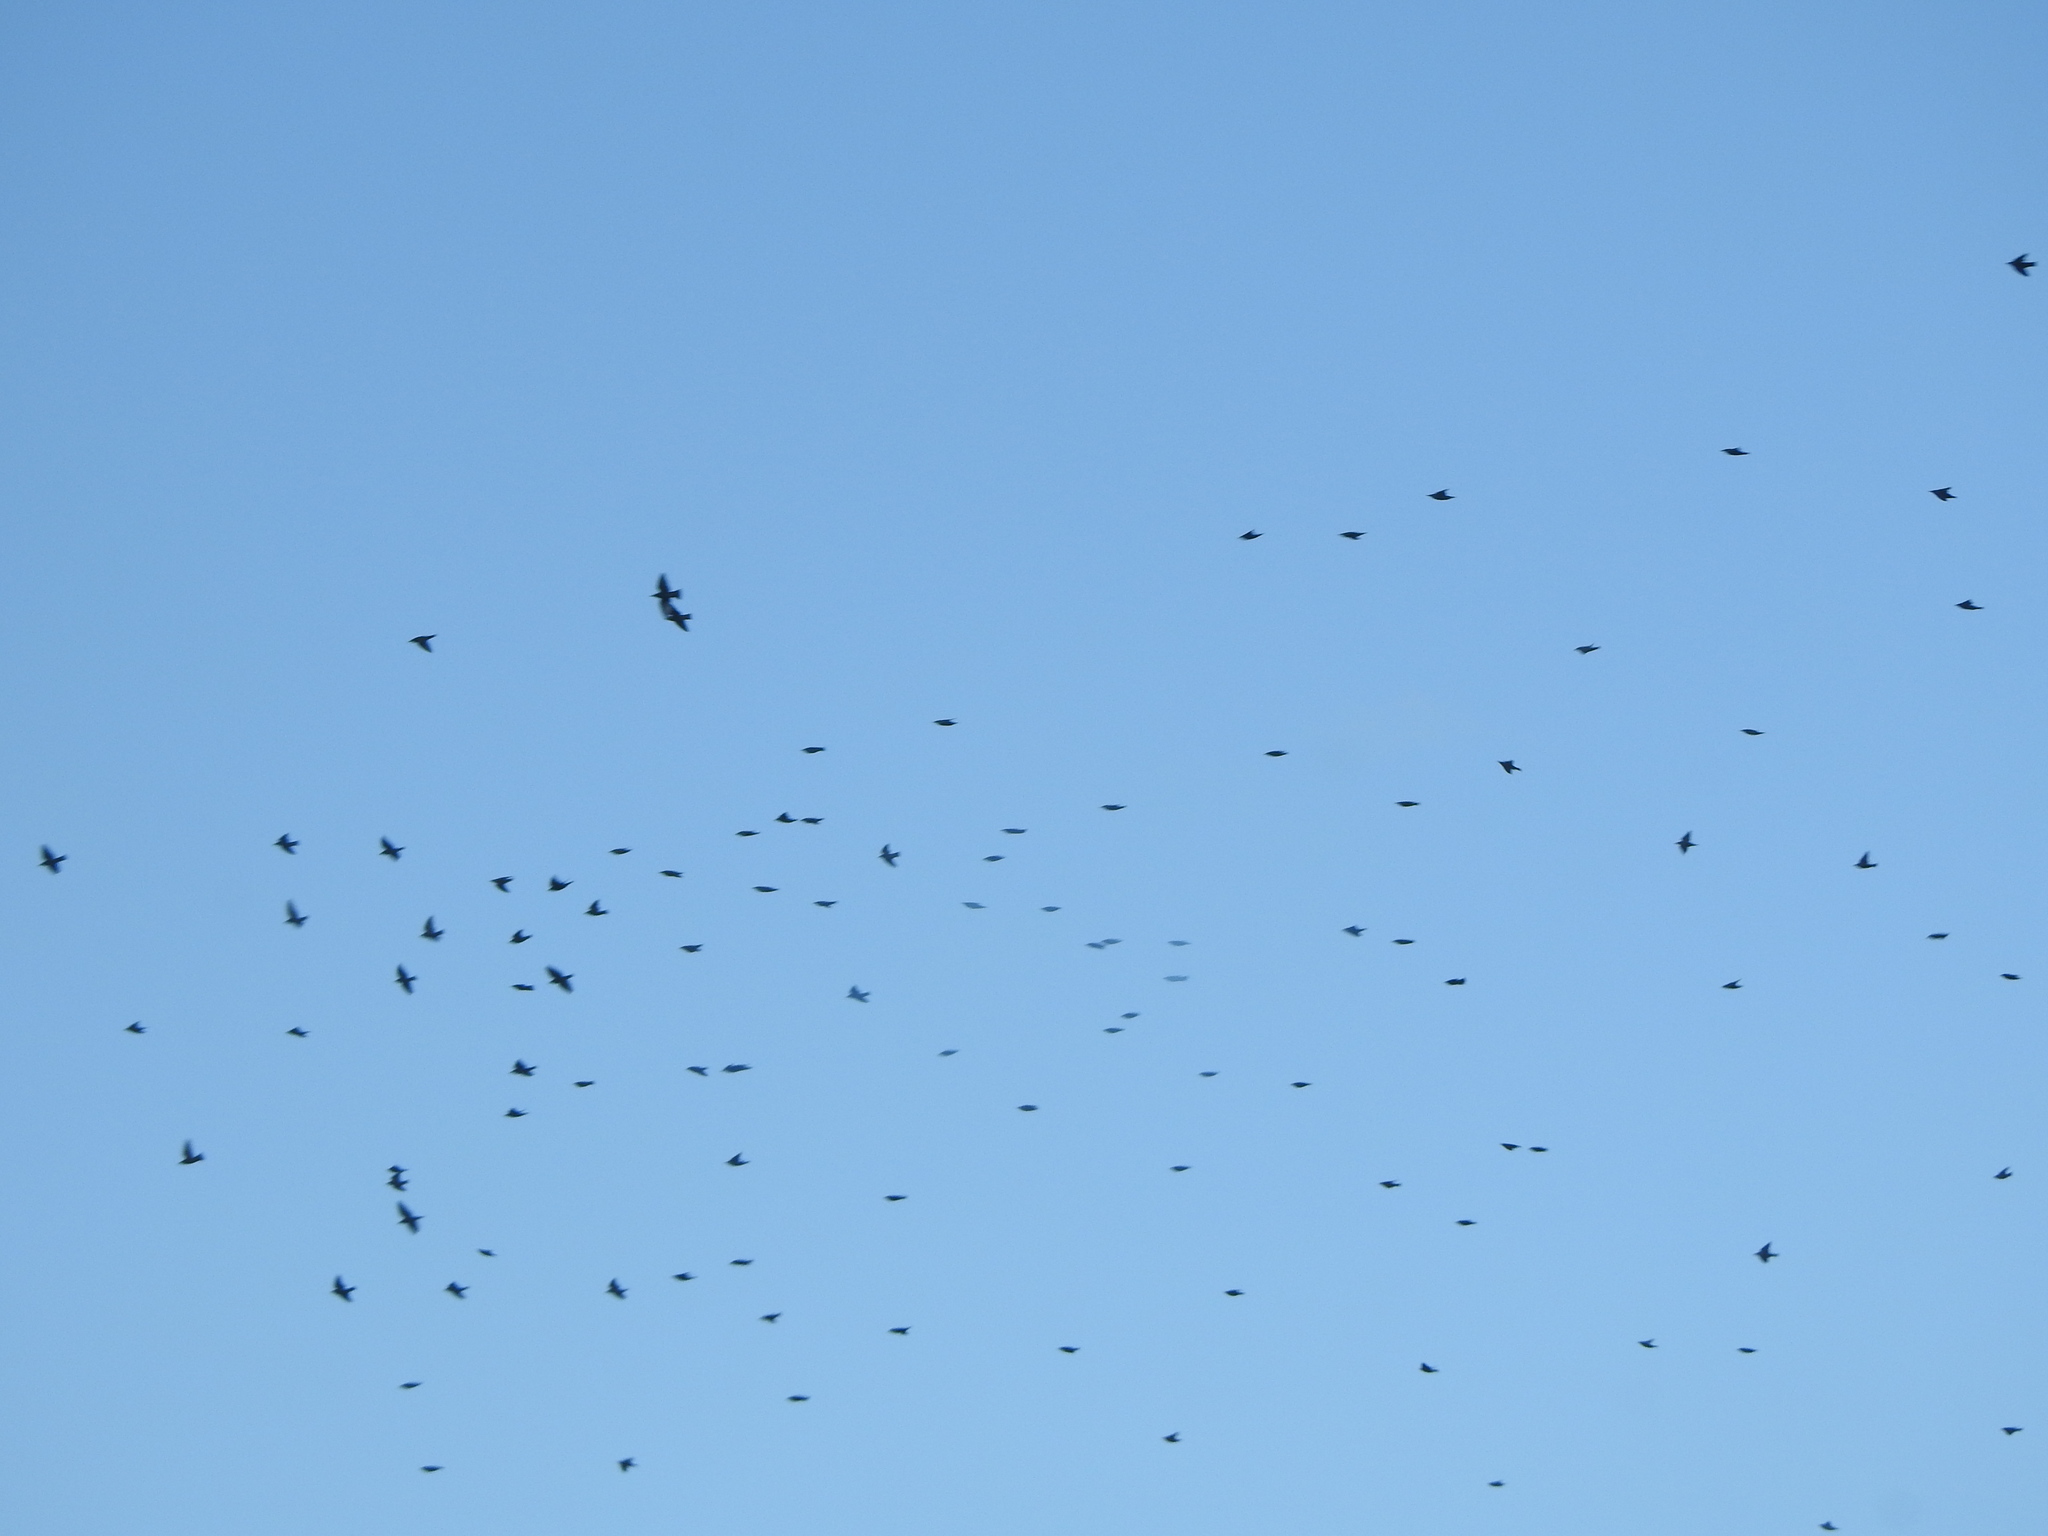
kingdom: Animalia
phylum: Chordata
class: Aves
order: Passeriformes
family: Sturnidae
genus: Sturnus
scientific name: Sturnus vulgaris
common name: Common starling
